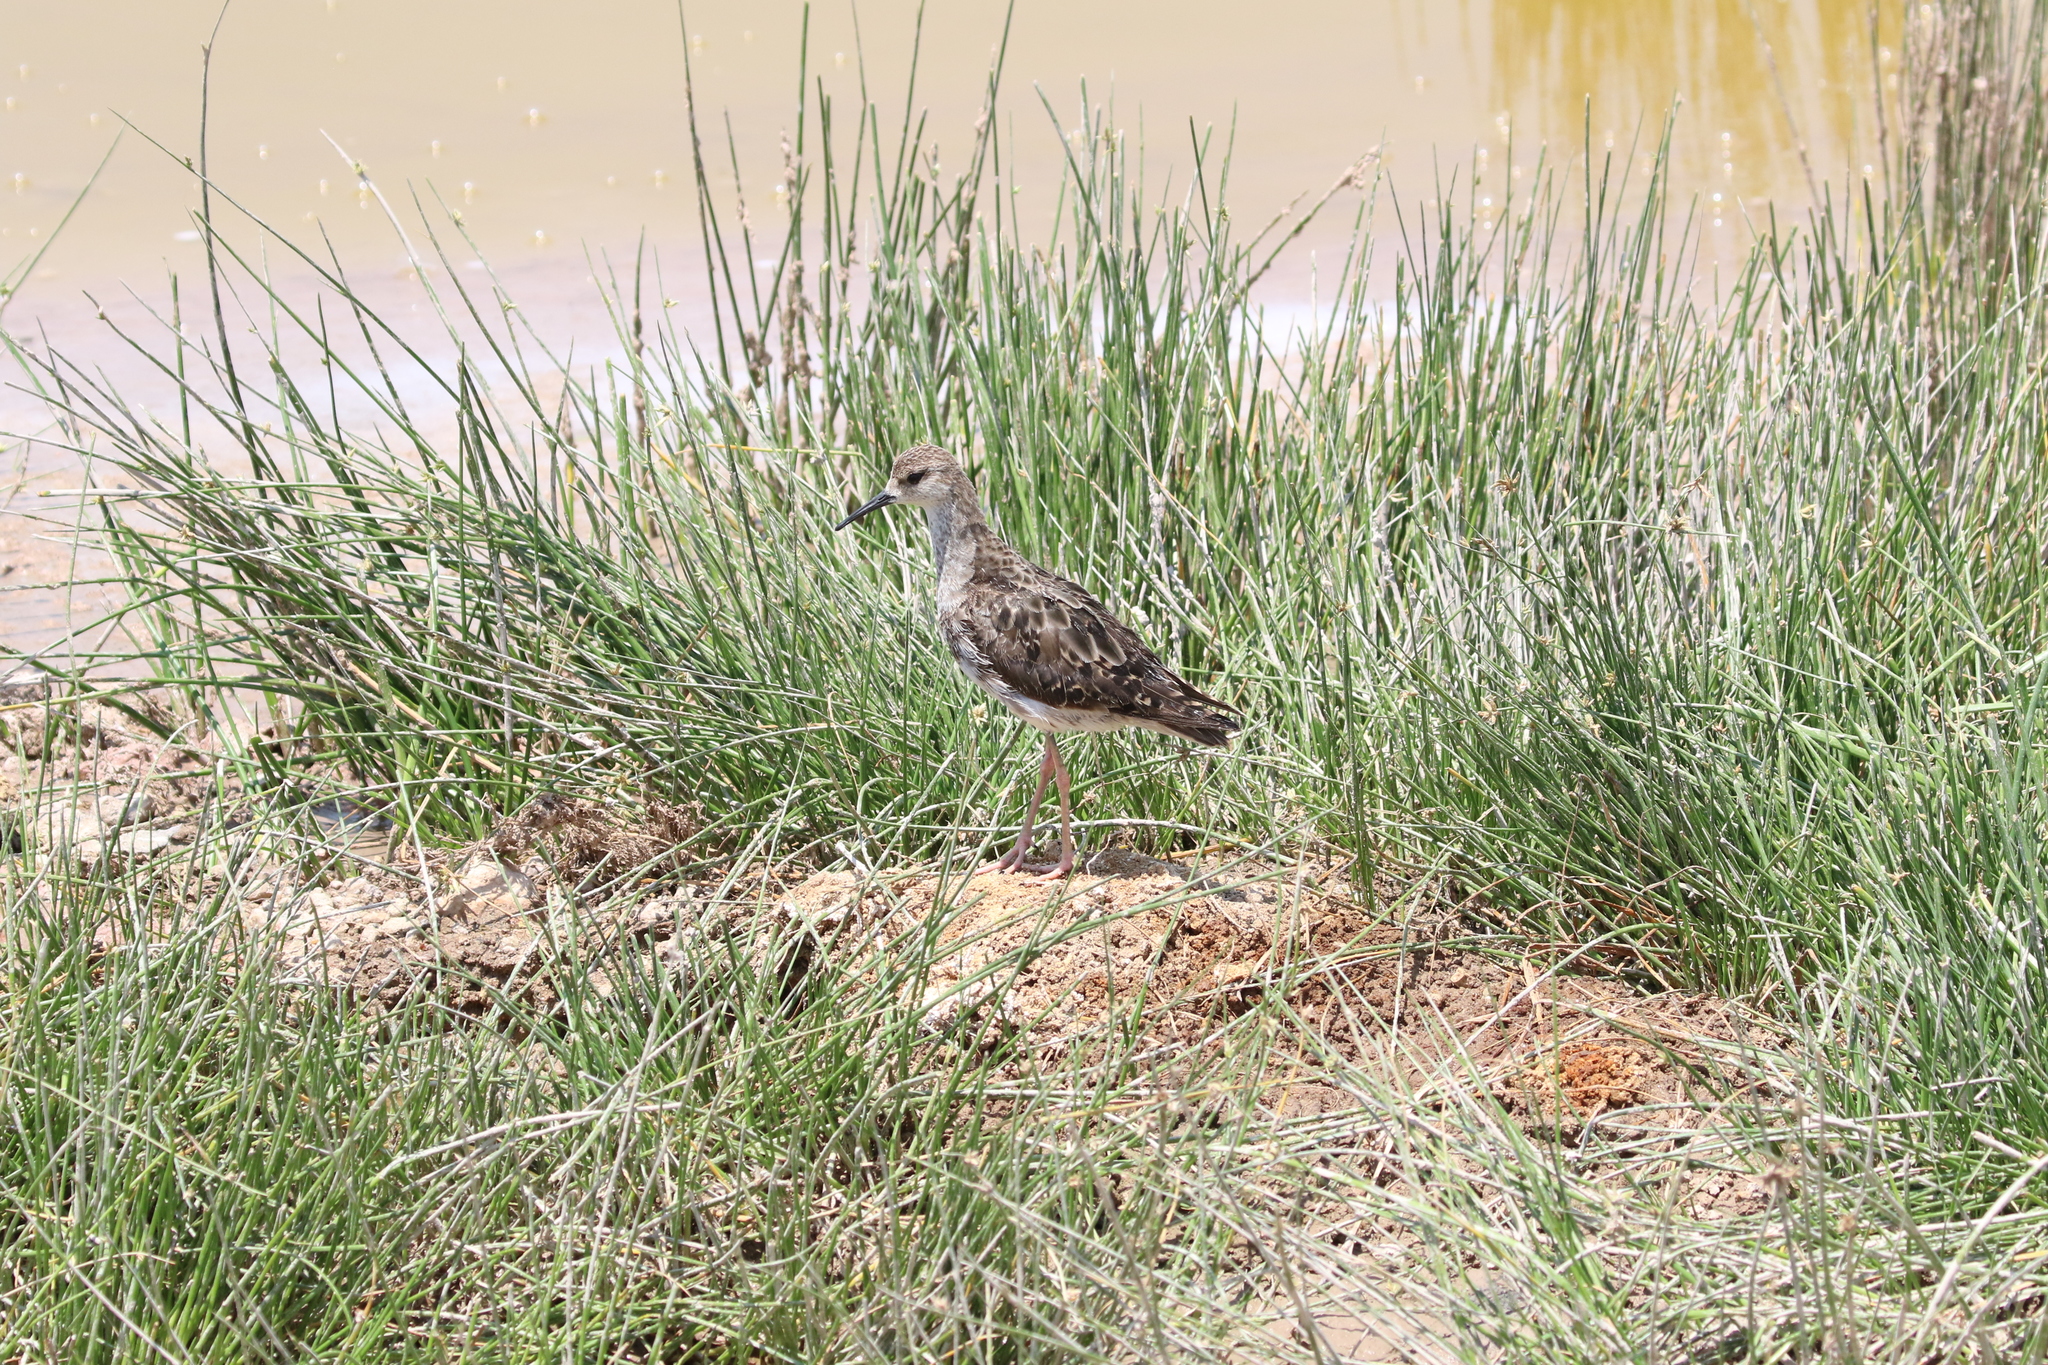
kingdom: Animalia
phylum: Chordata
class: Aves
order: Charadriiformes
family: Scolopacidae
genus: Calidris
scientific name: Calidris pugnax
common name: Ruff
